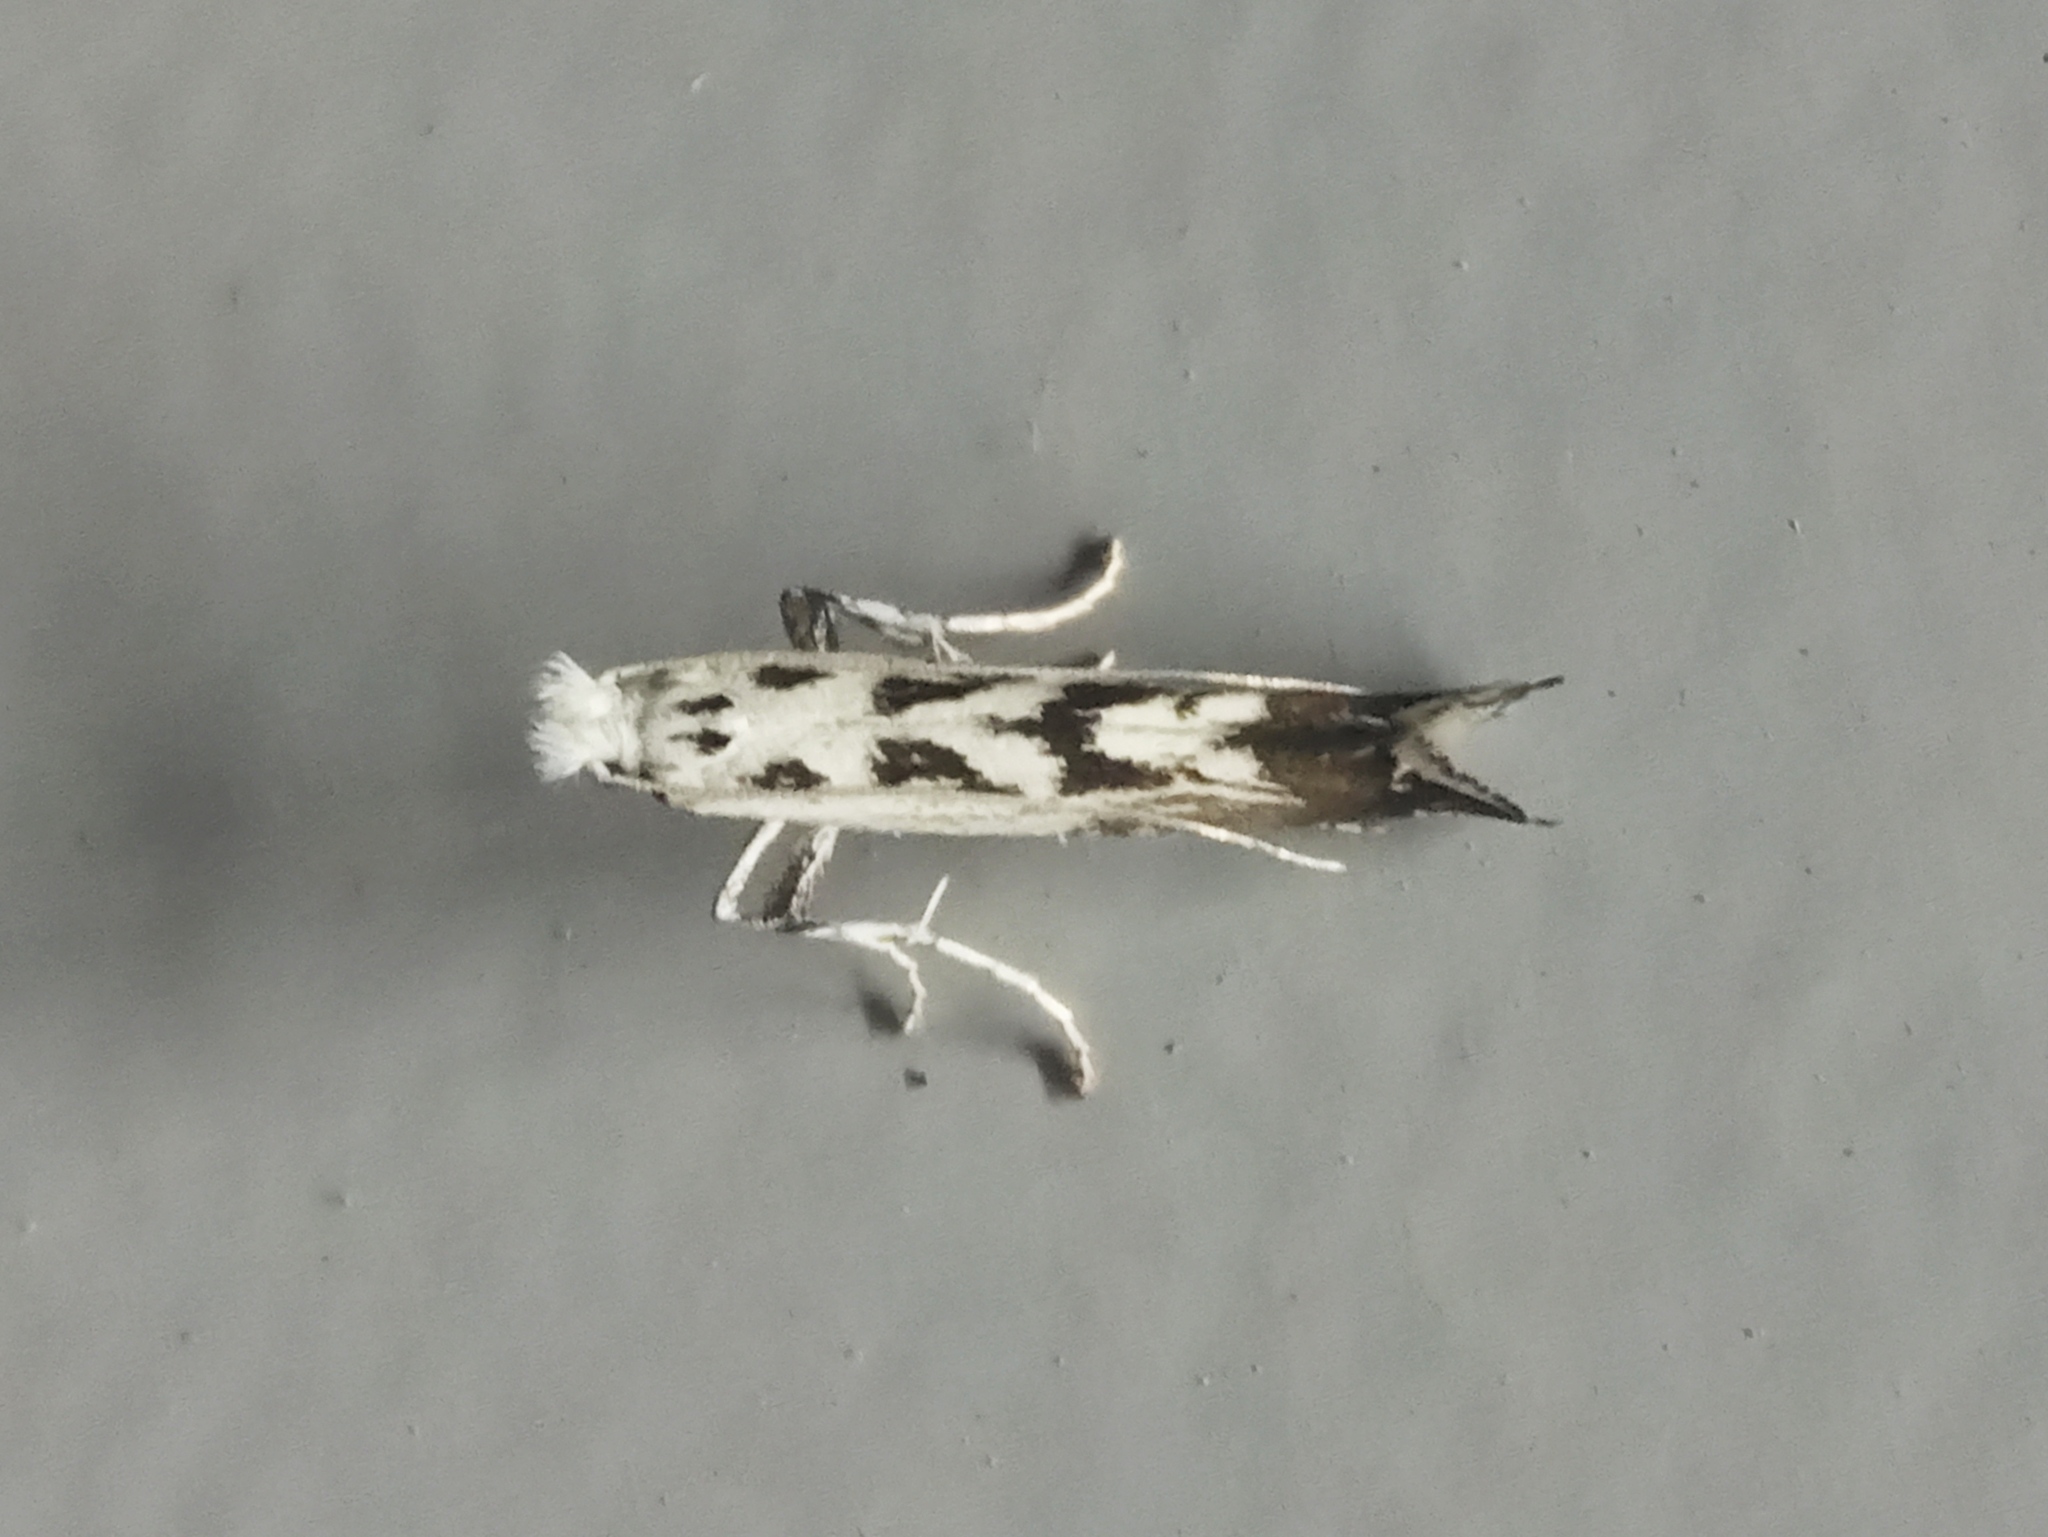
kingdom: Animalia
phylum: Arthropoda
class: Insecta
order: Lepidoptera
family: Gracillariidae
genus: Ornixola
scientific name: Ornixola caudulatella
